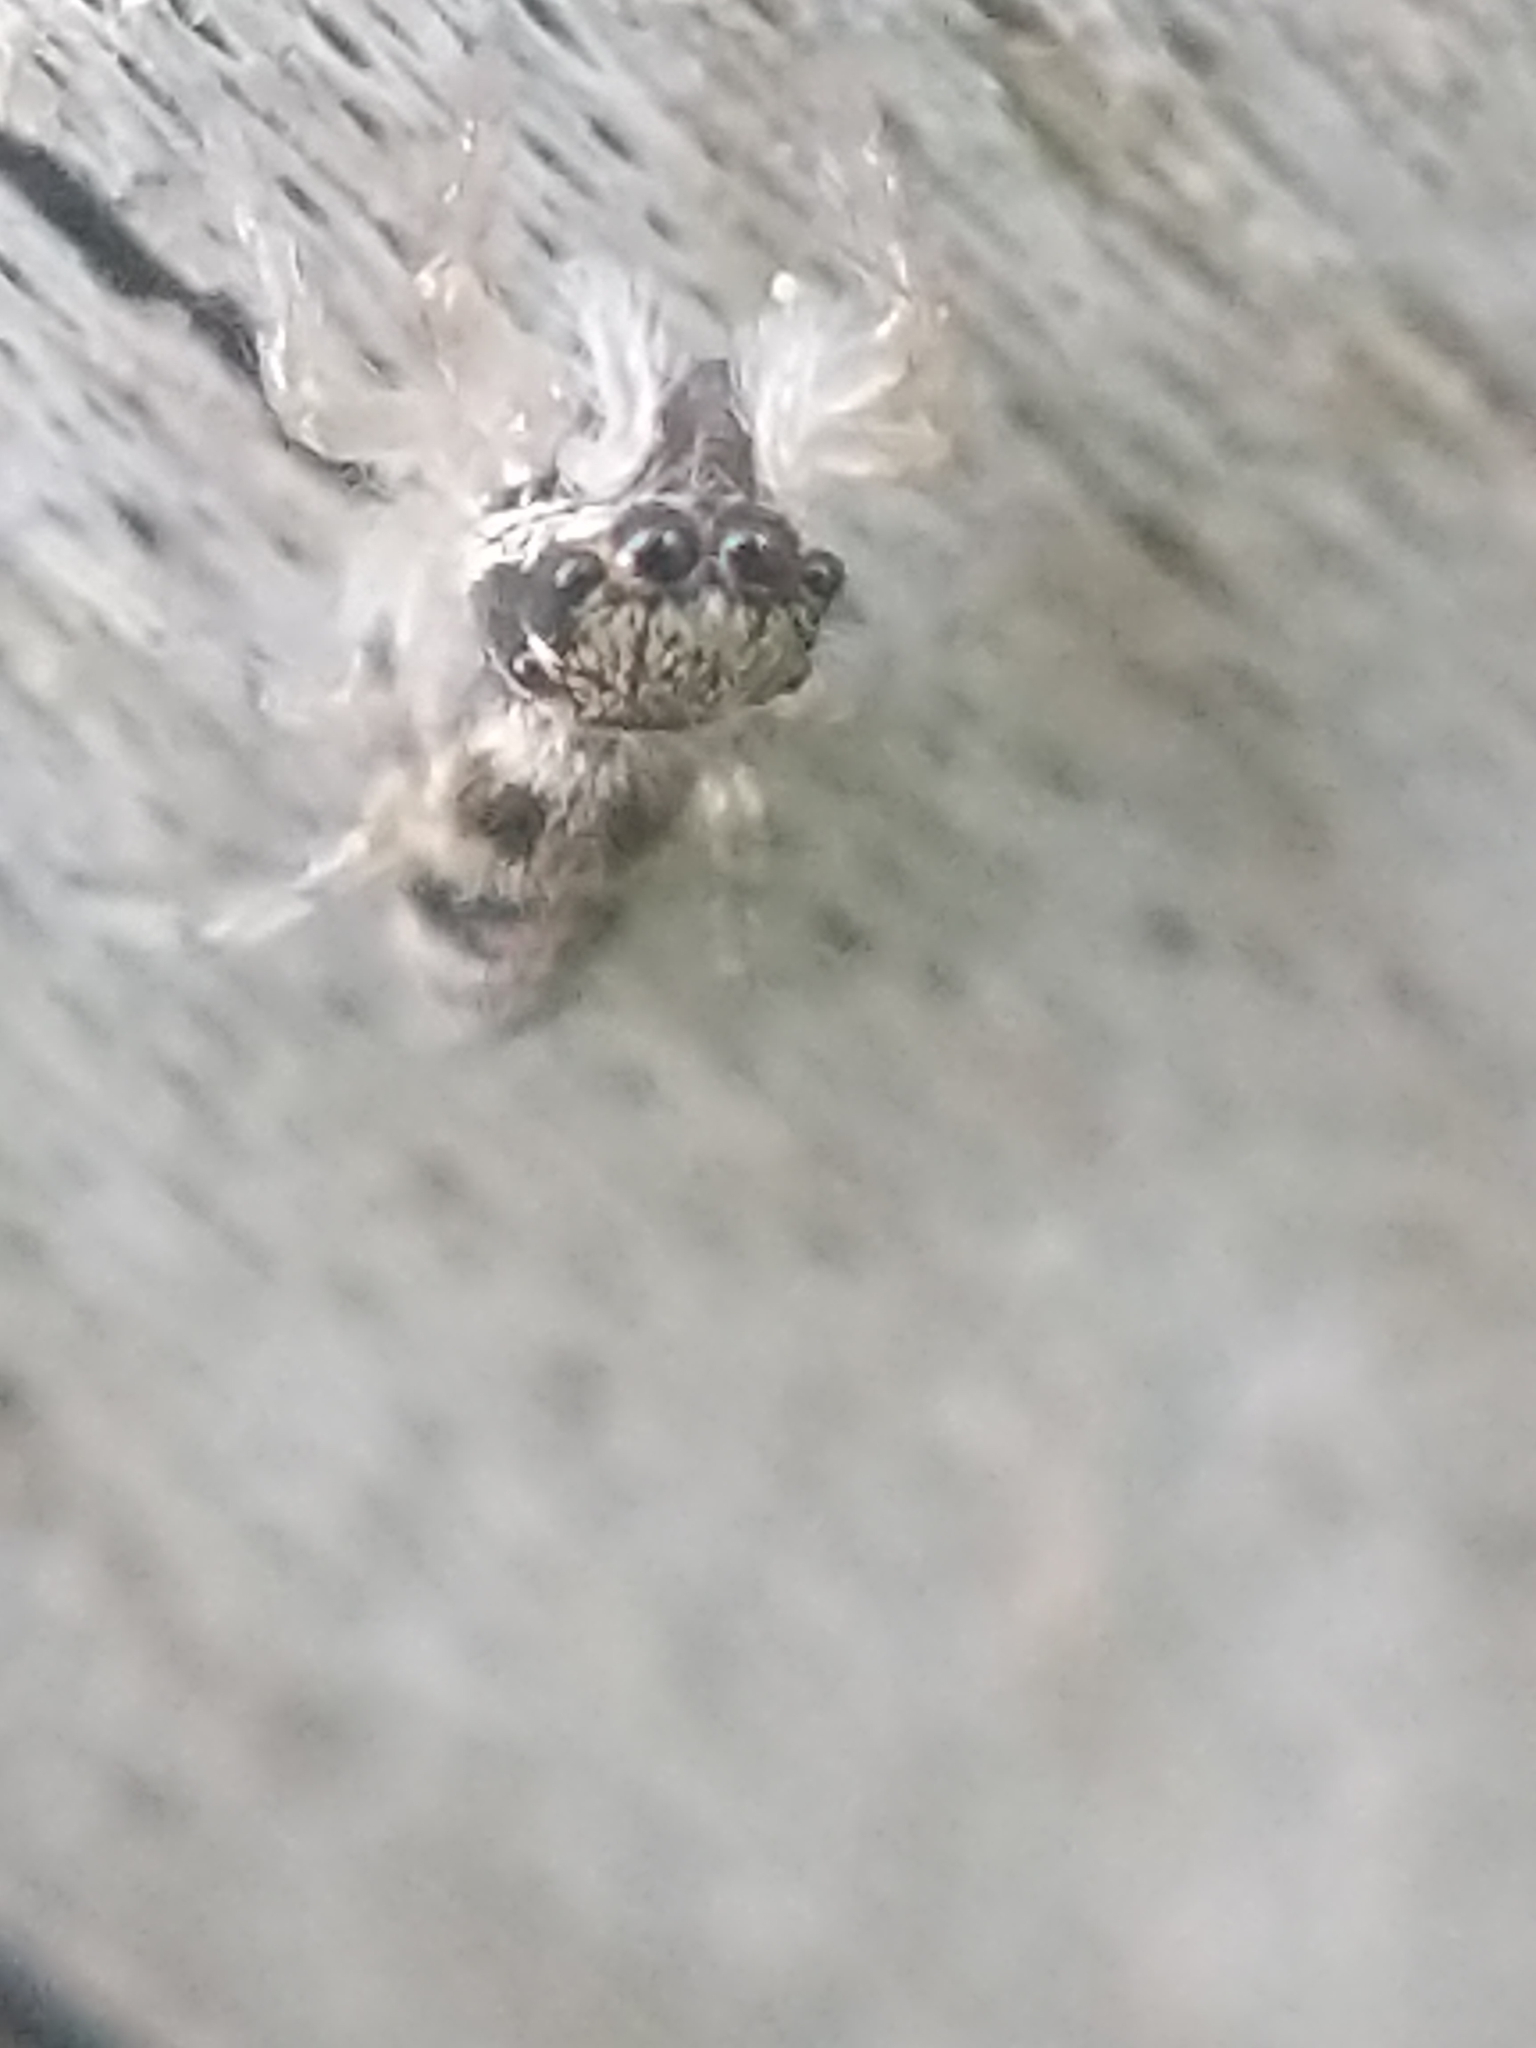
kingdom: Animalia
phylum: Arthropoda
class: Arachnida
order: Araneae
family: Salticidae
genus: Salticus
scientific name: Salticus scenicus
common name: Zebra jumper
